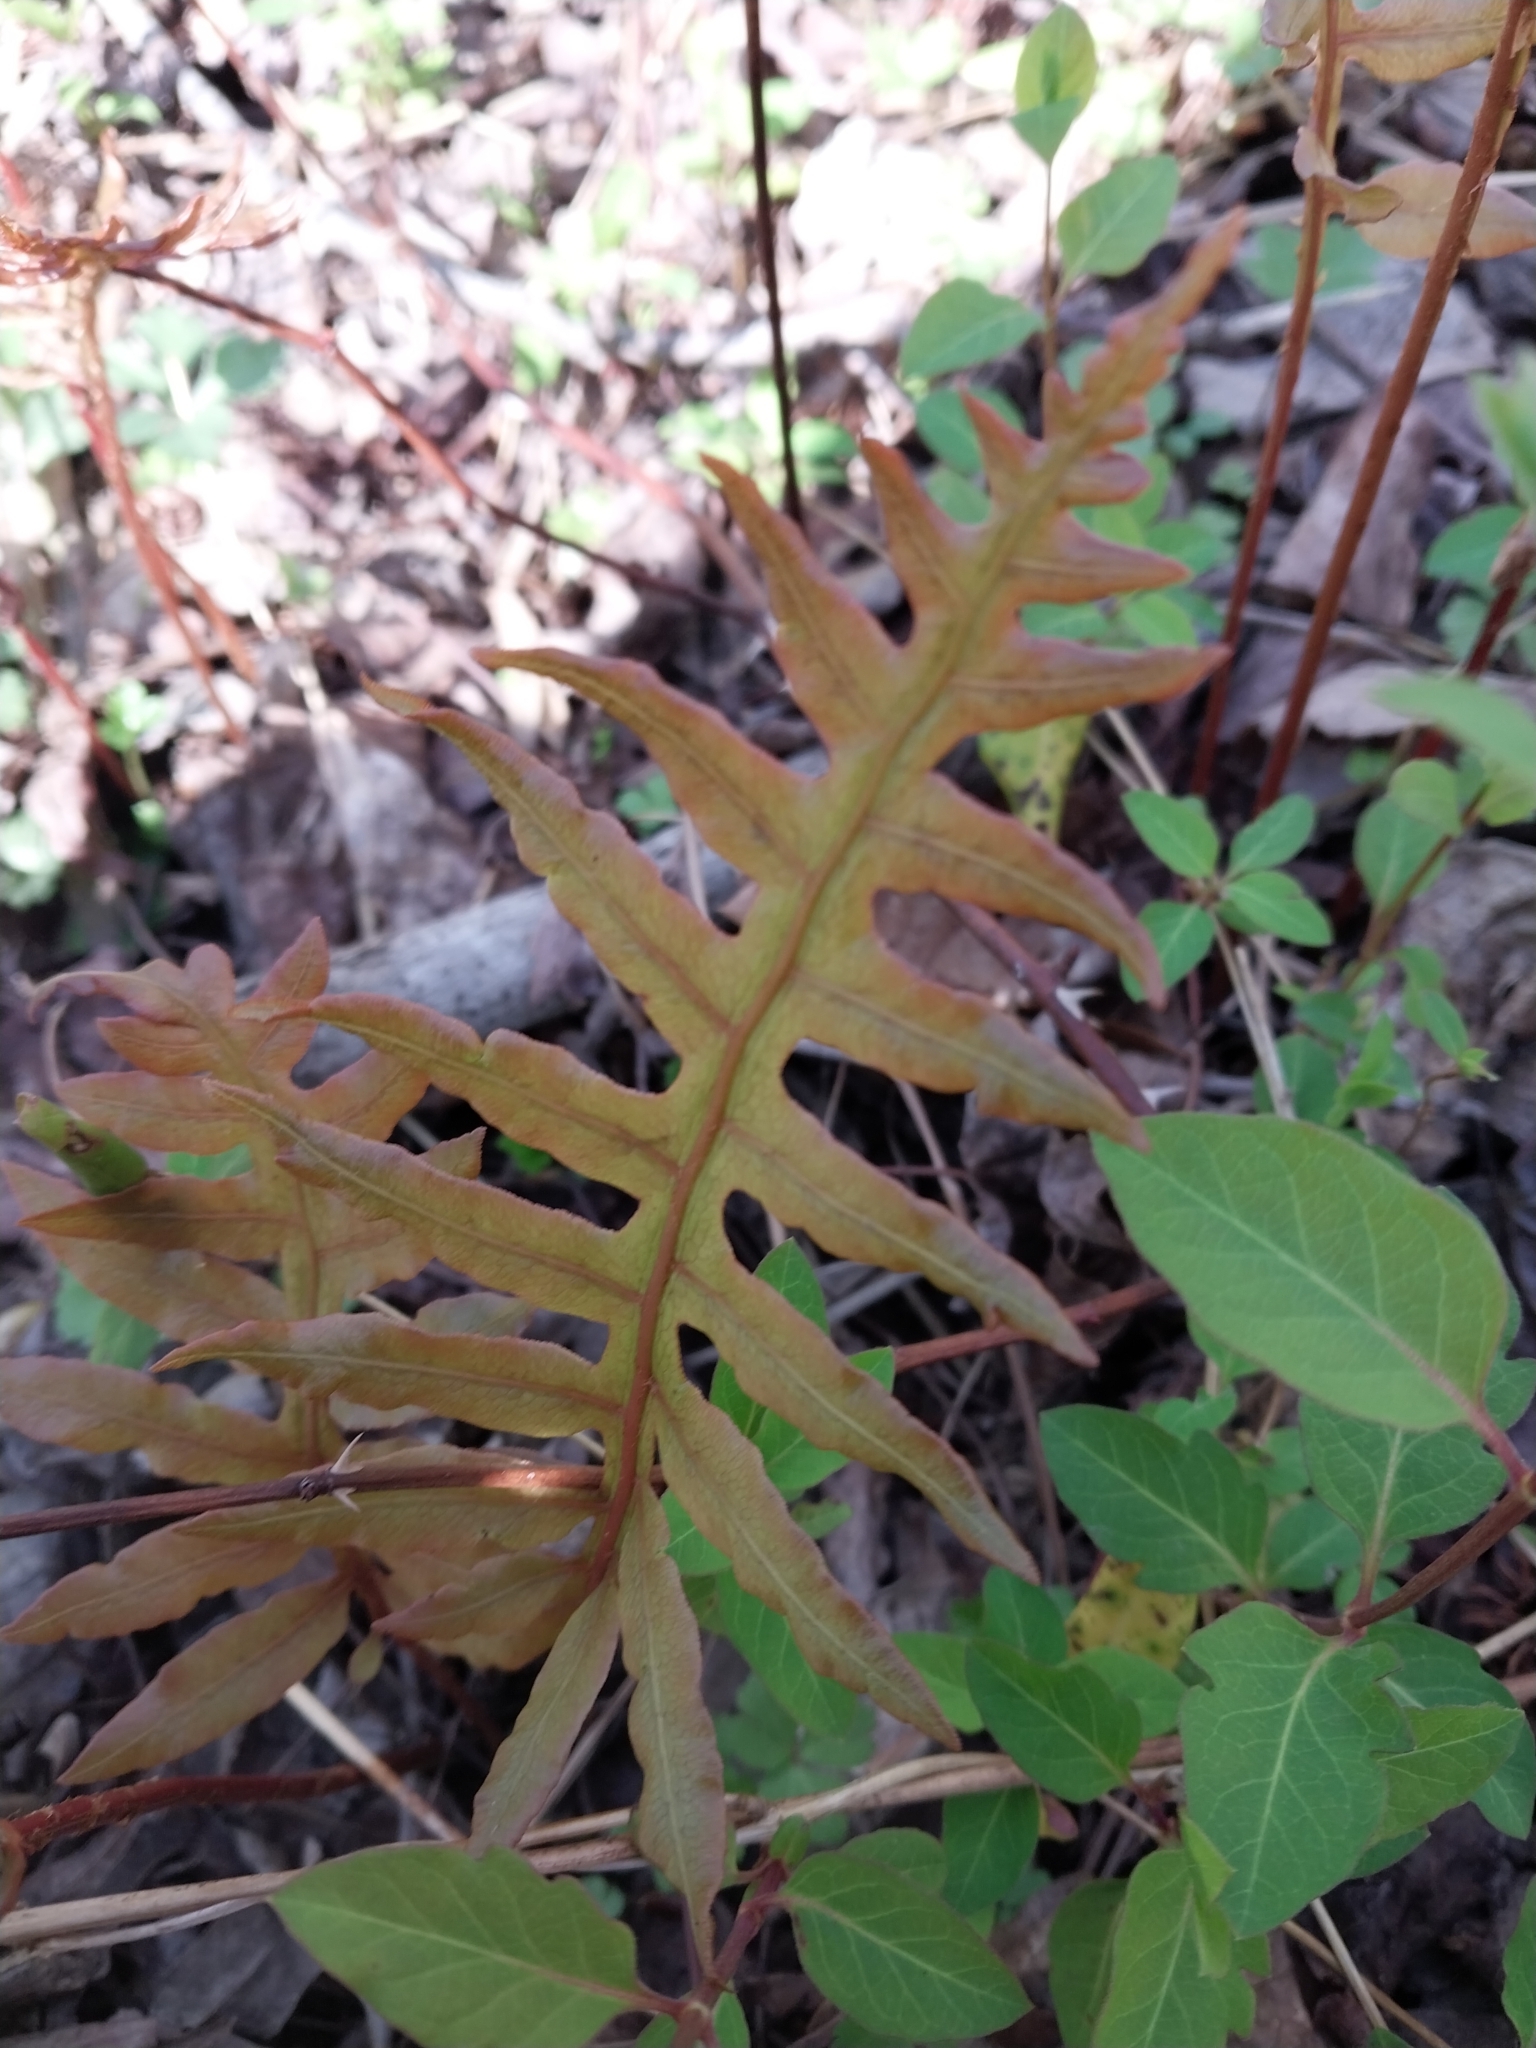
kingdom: Plantae
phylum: Tracheophyta
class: Polypodiopsida
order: Polypodiales
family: Blechnaceae
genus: Lorinseria
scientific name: Lorinseria areolata
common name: Dwarf chain fern
